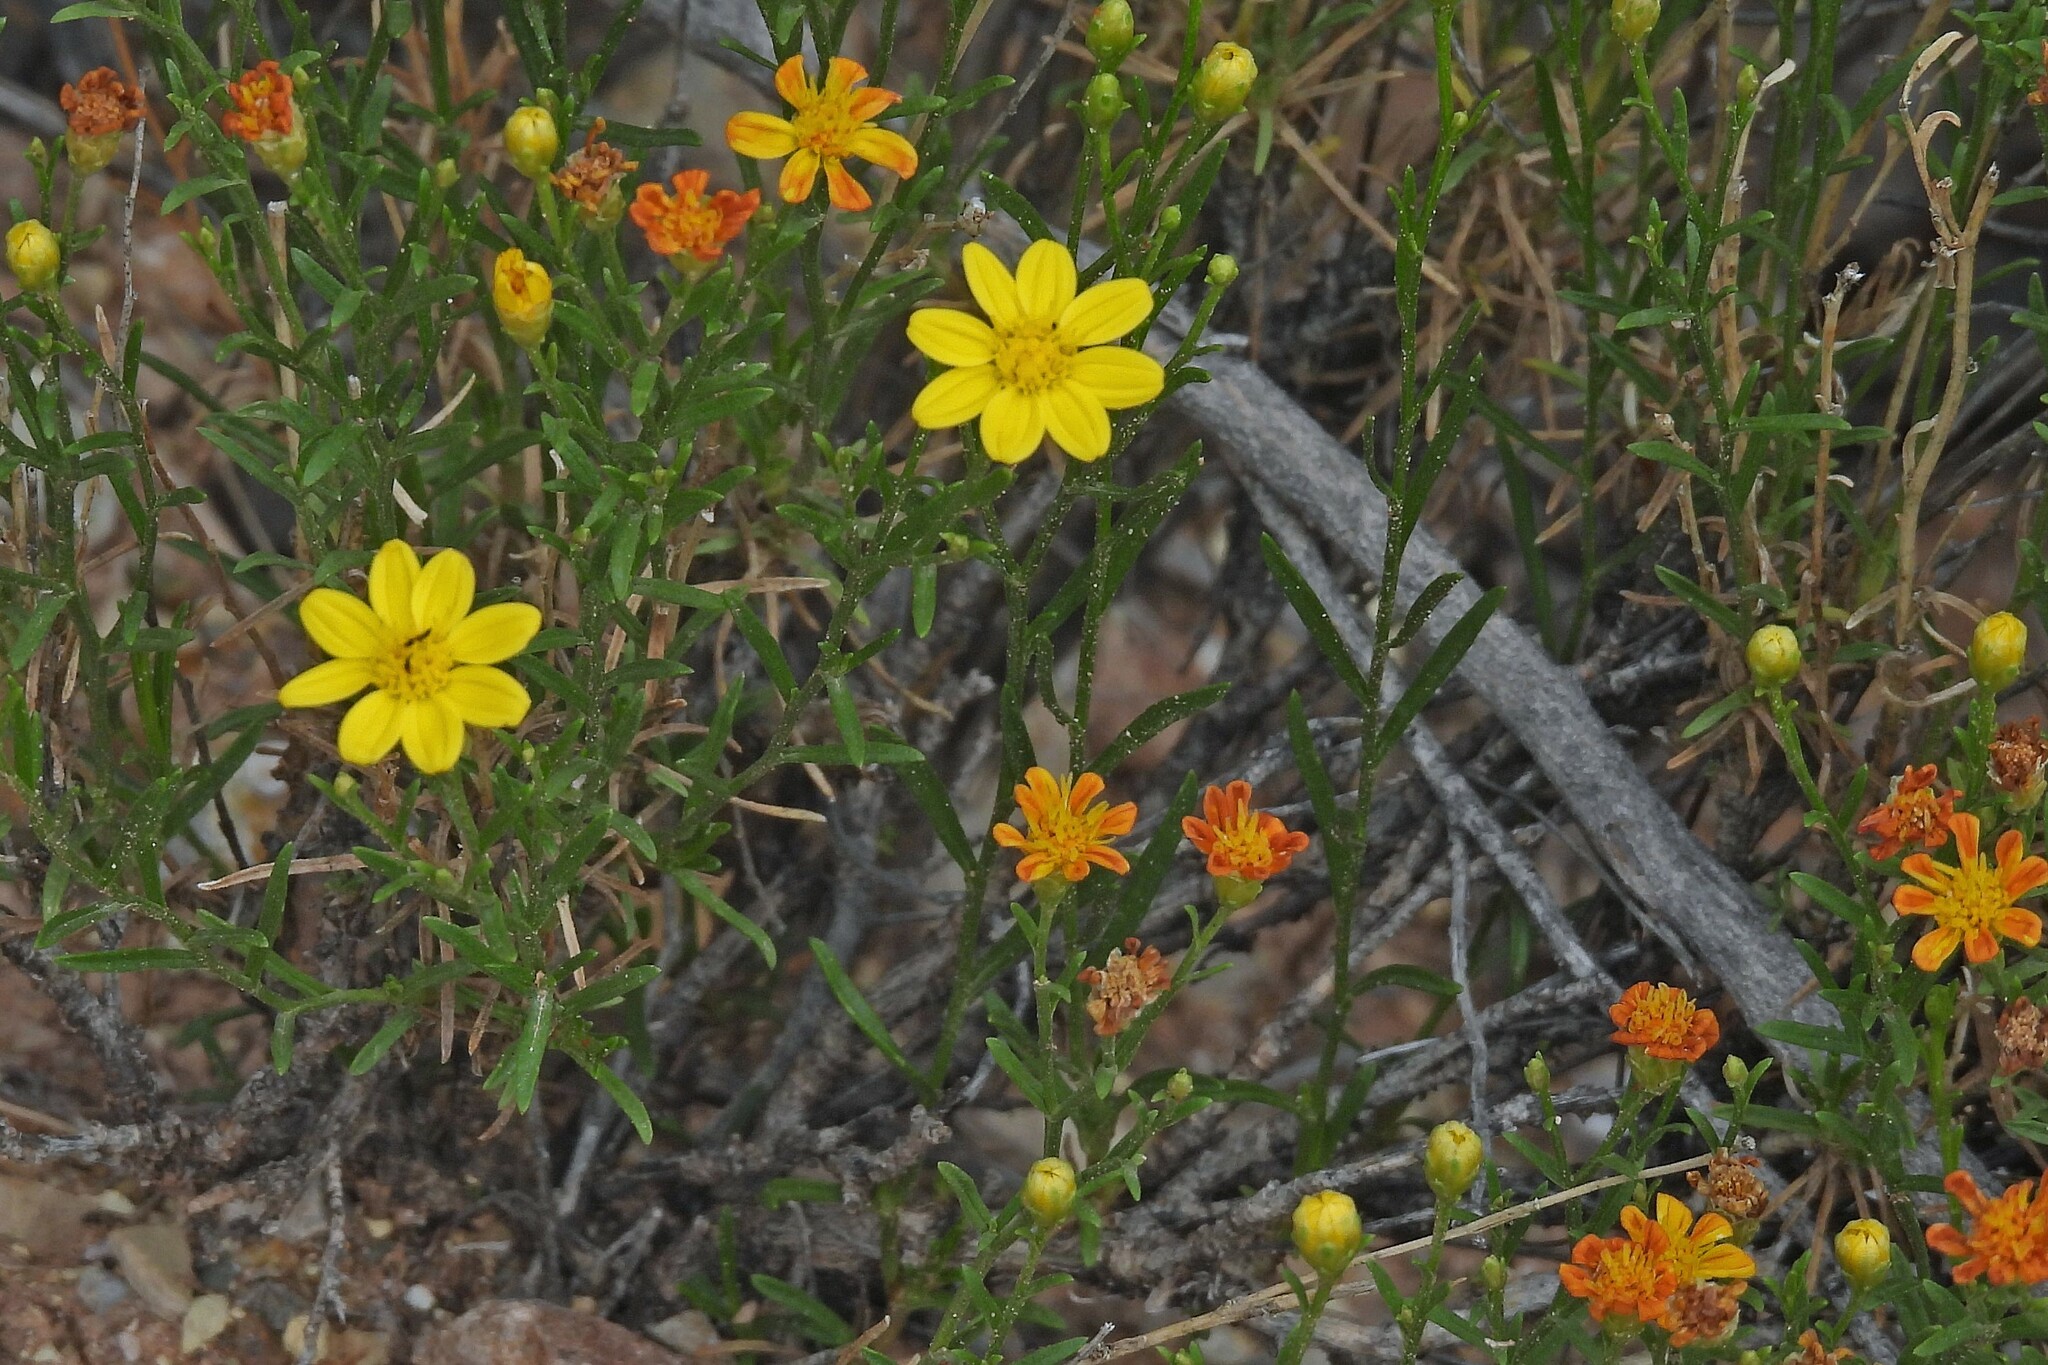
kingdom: Plantae
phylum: Tracheophyta
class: Magnoliopsida
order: Asterales
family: Asteraceae
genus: Gutierrezia
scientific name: Gutierrezia mandonii
